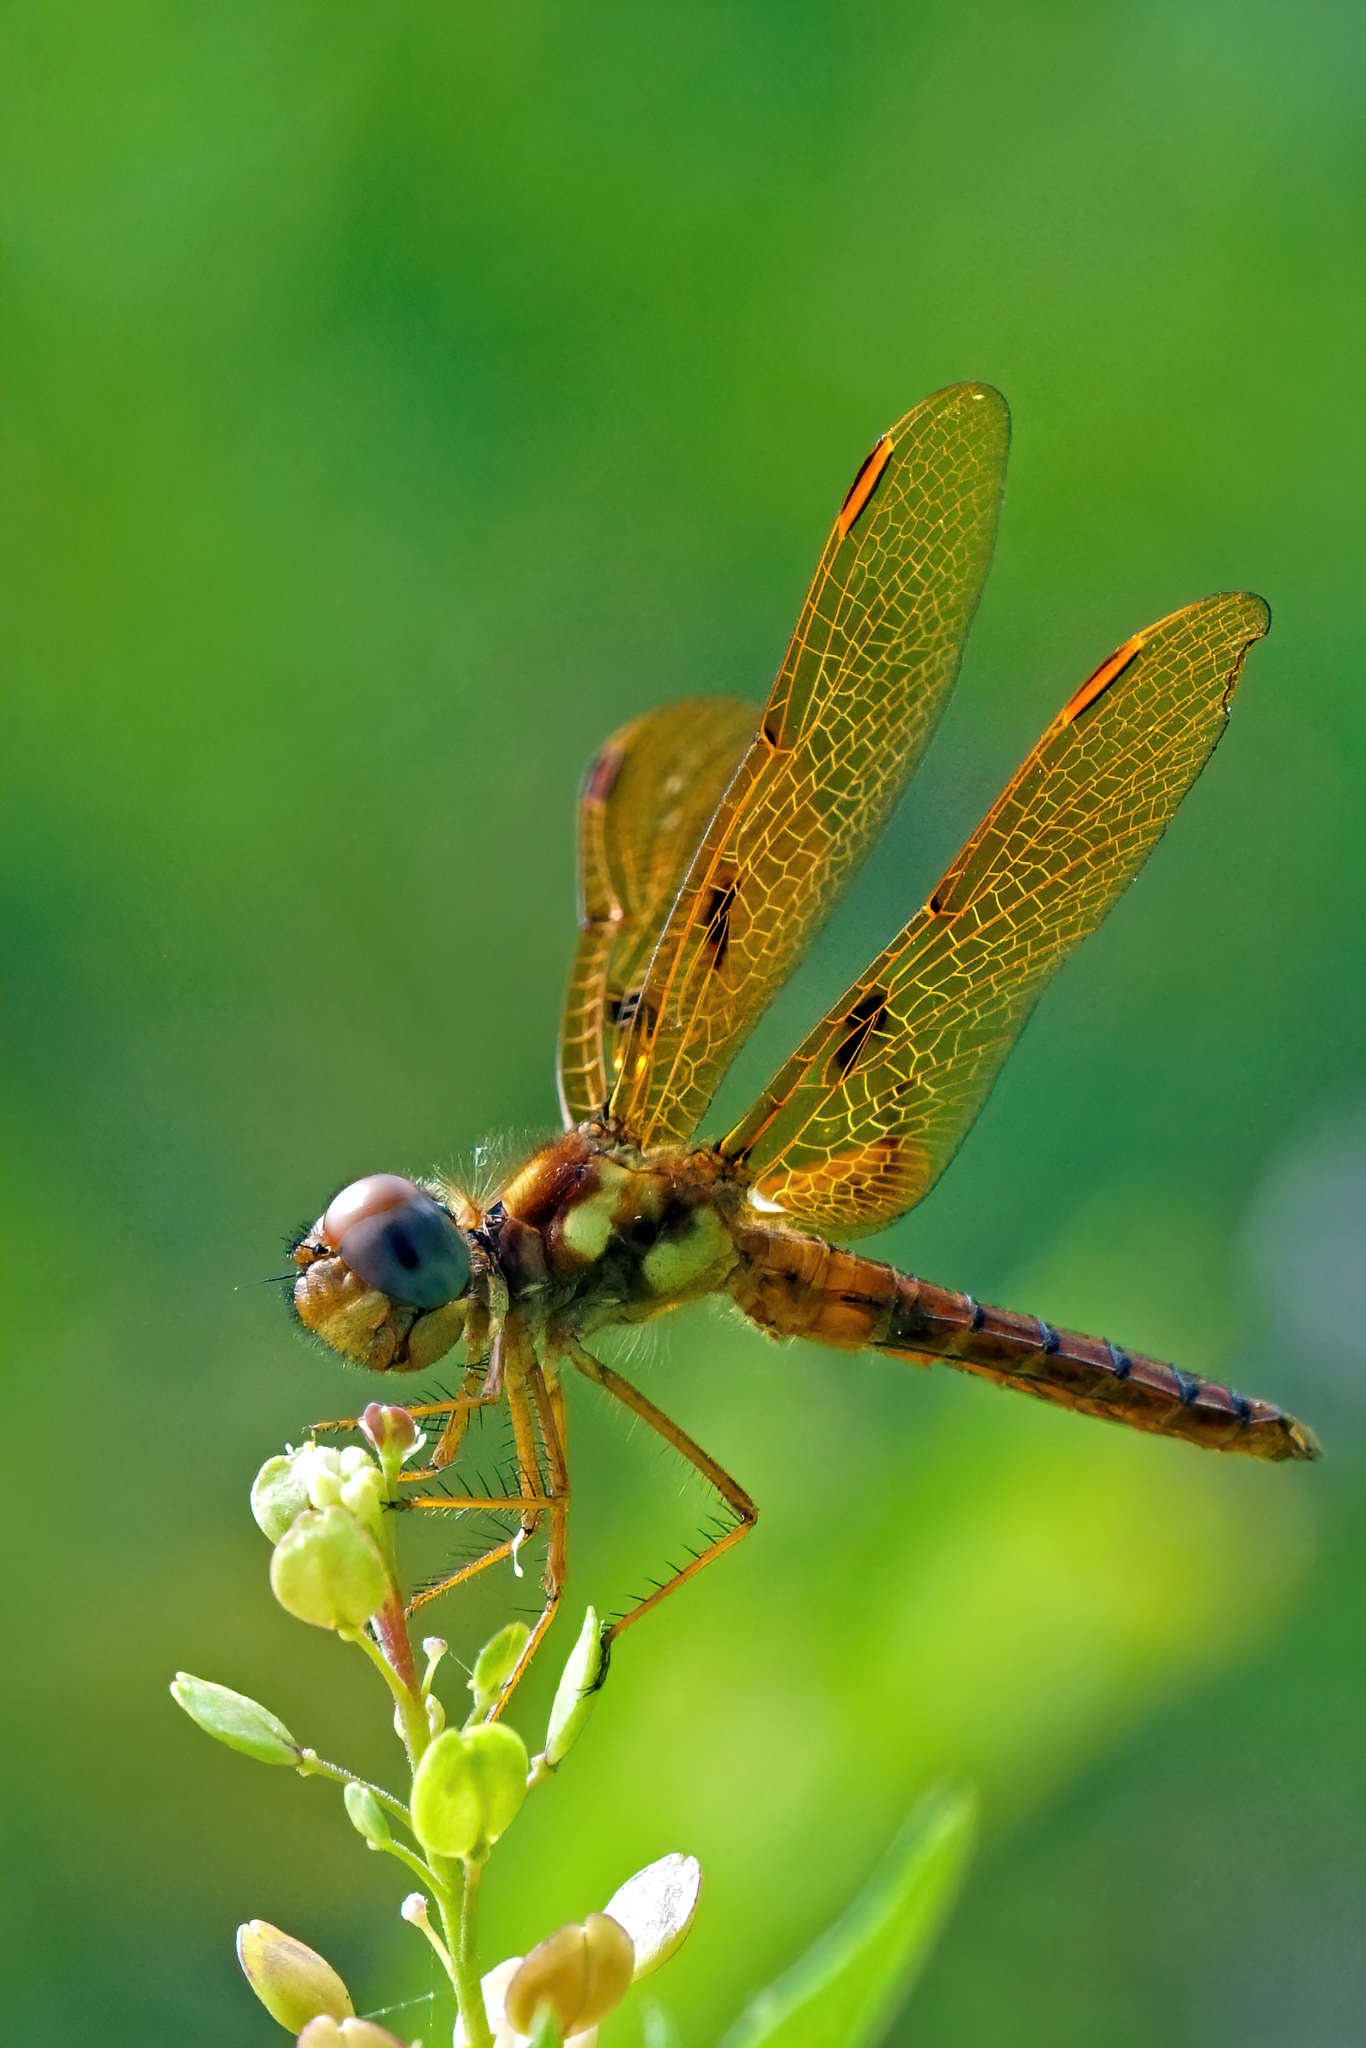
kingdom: Animalia
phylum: Arthropoda
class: Insecta
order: Odonata
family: Libellulidae
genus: Perithemis
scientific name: Perithemis tenera
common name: Eastern amberwing
